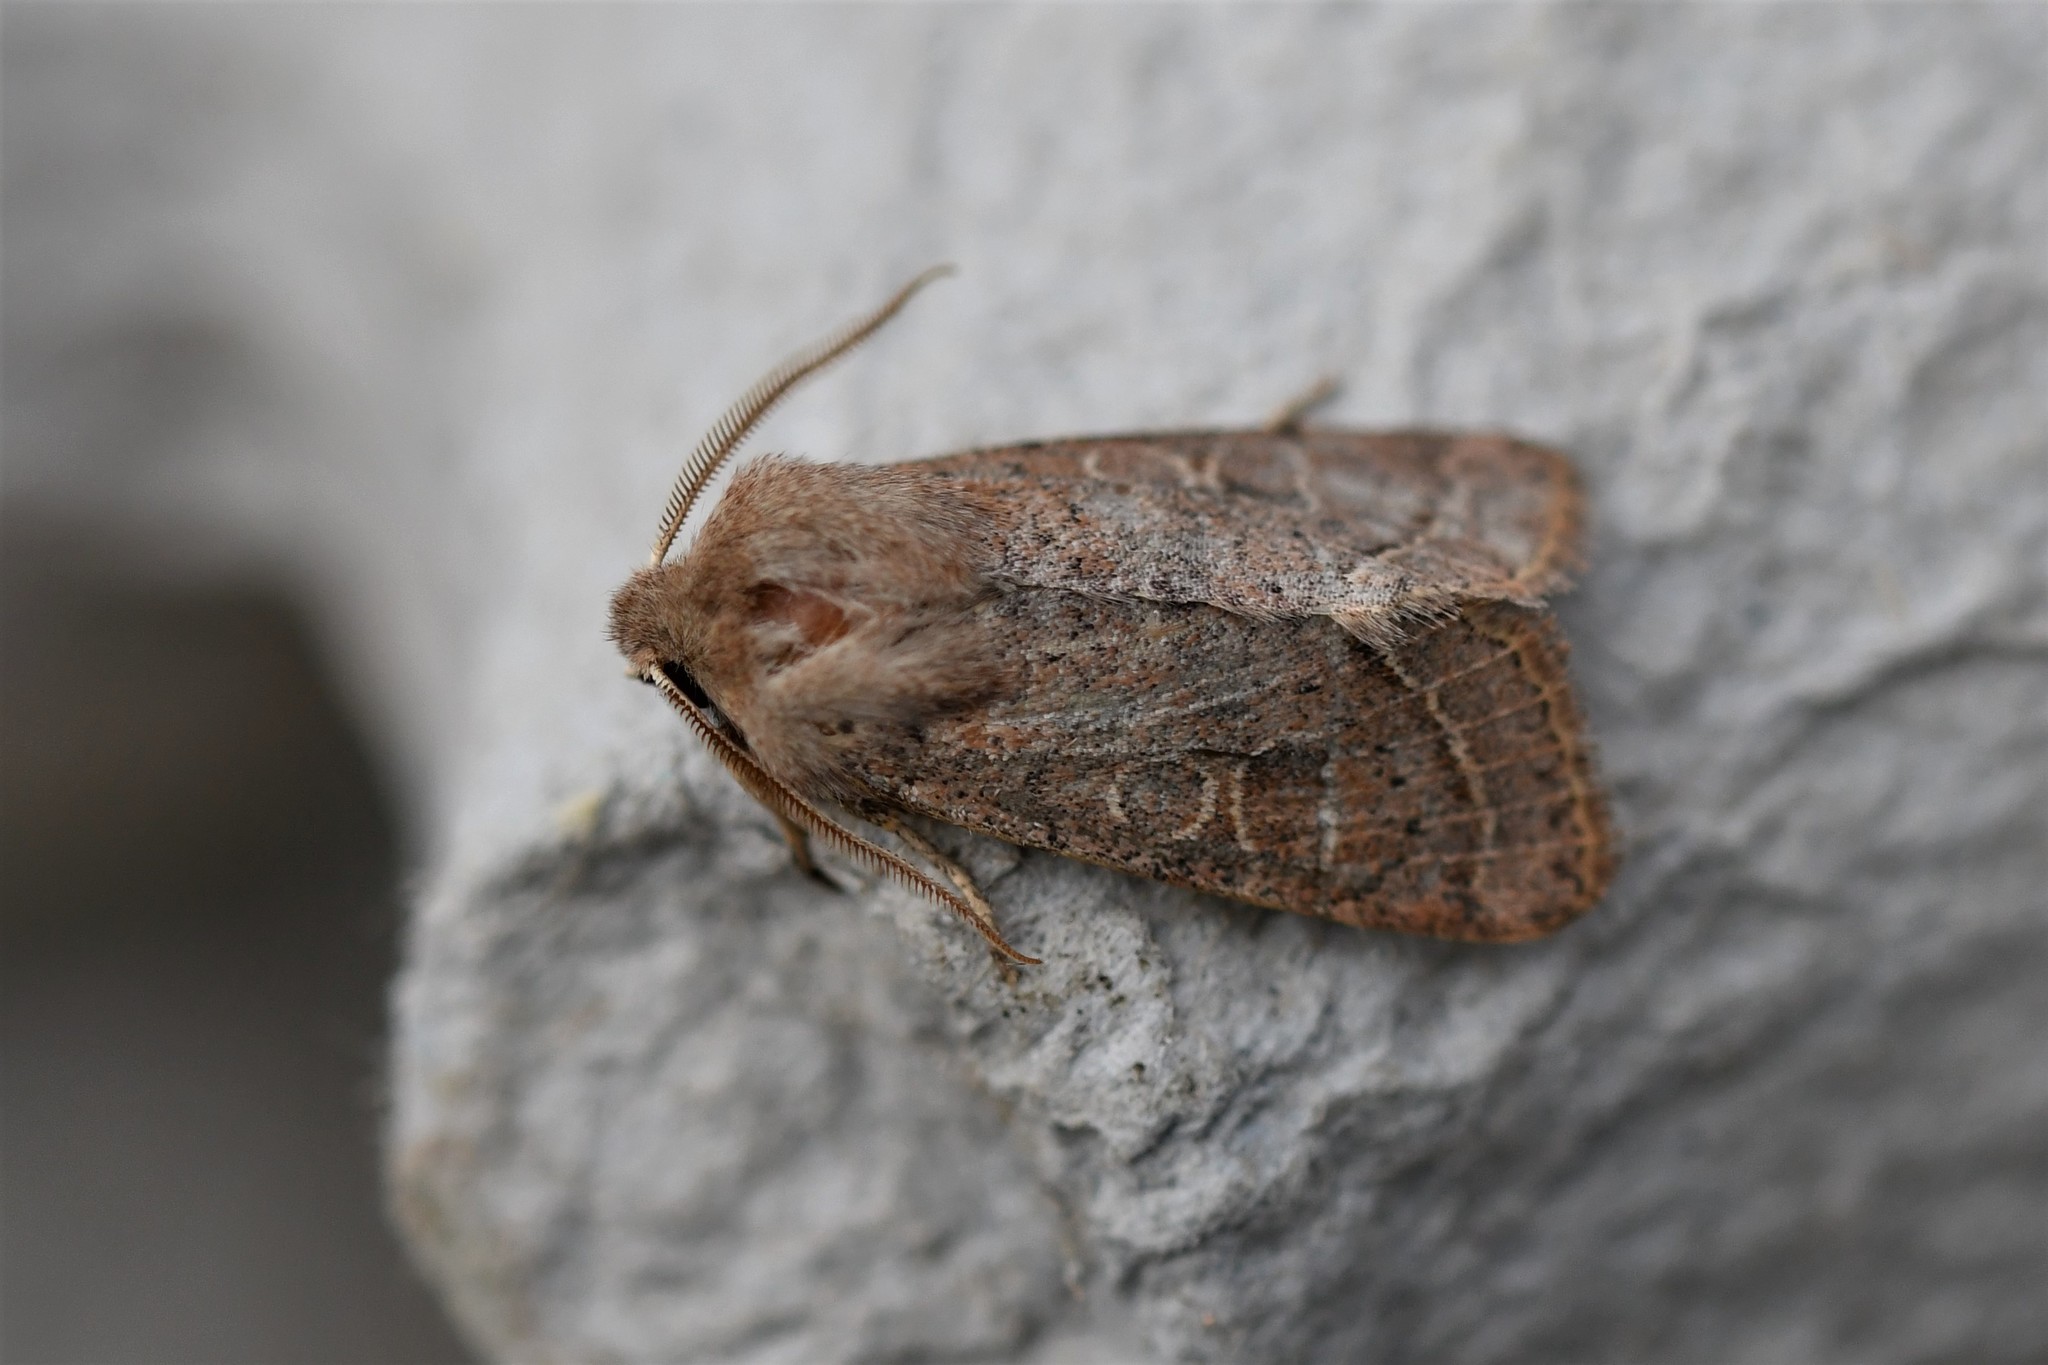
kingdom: Animalia
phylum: Arthropoda
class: Insecta
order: Lepidoptera
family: Noctuidae
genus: Orthosia
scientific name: Orthosia cerasi
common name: Common quaker
